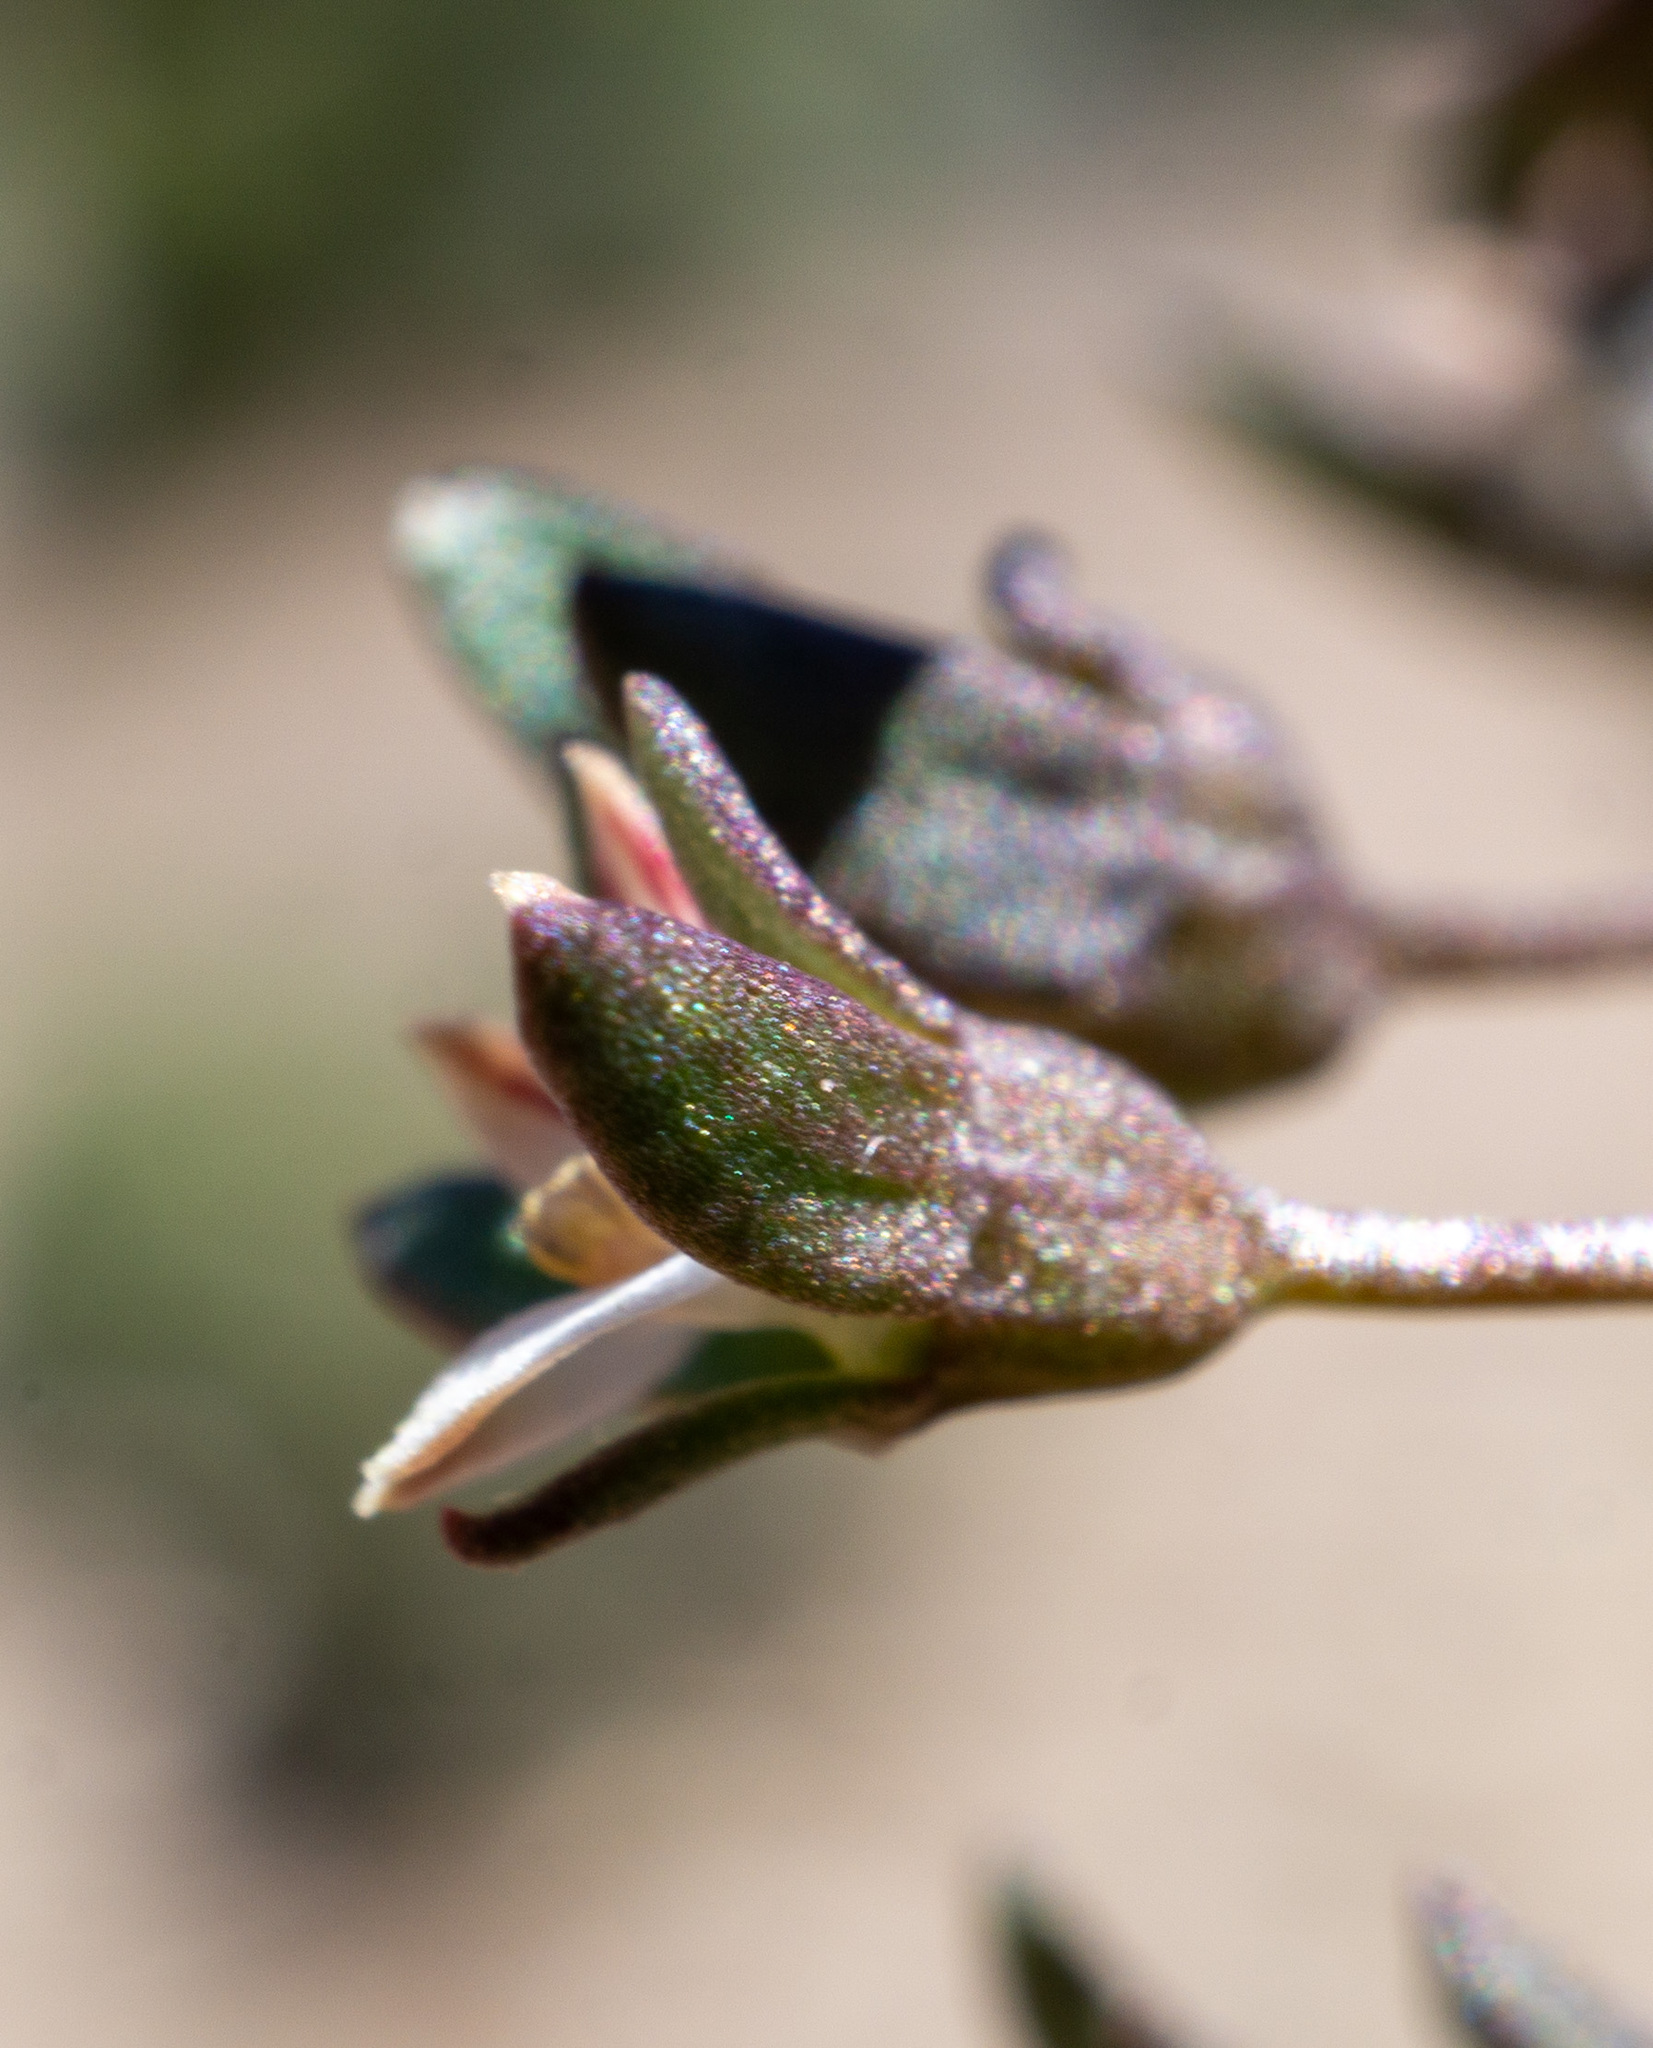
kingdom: Plantae
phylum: Tracheophyta
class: Magnoliopsida
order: Asterales
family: Campanulaceae
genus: Nemacladus
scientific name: Nemacladus rigidus
